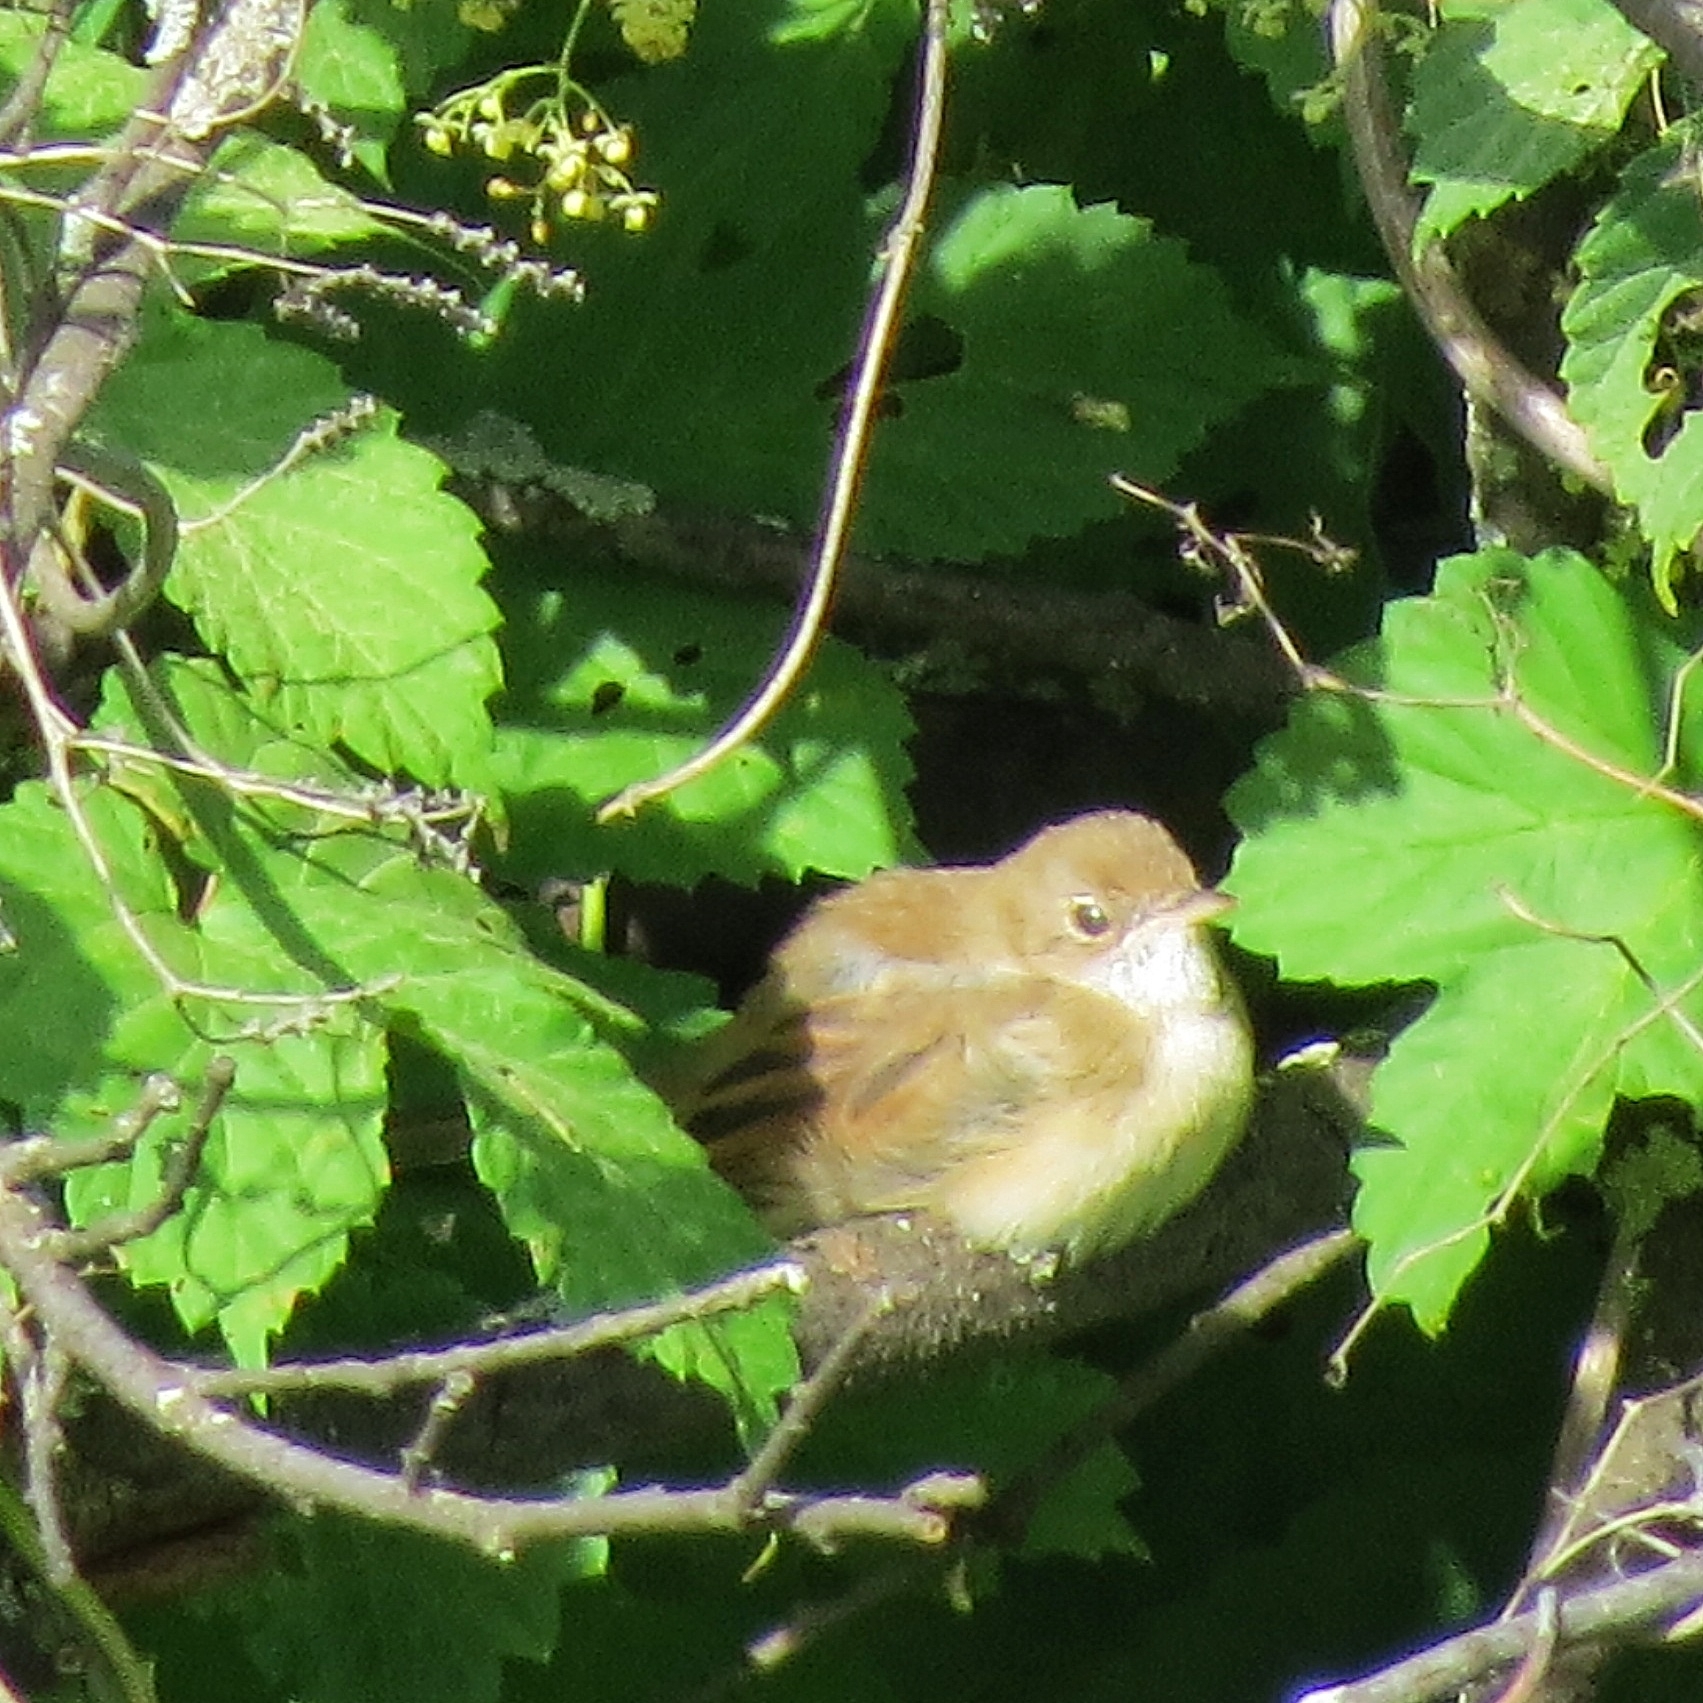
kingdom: Animalia
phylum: Chordata
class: Aves
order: Passeriformes
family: Sylviidae
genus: Sylvia
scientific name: Sylvia communis
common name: Common whitethroat
